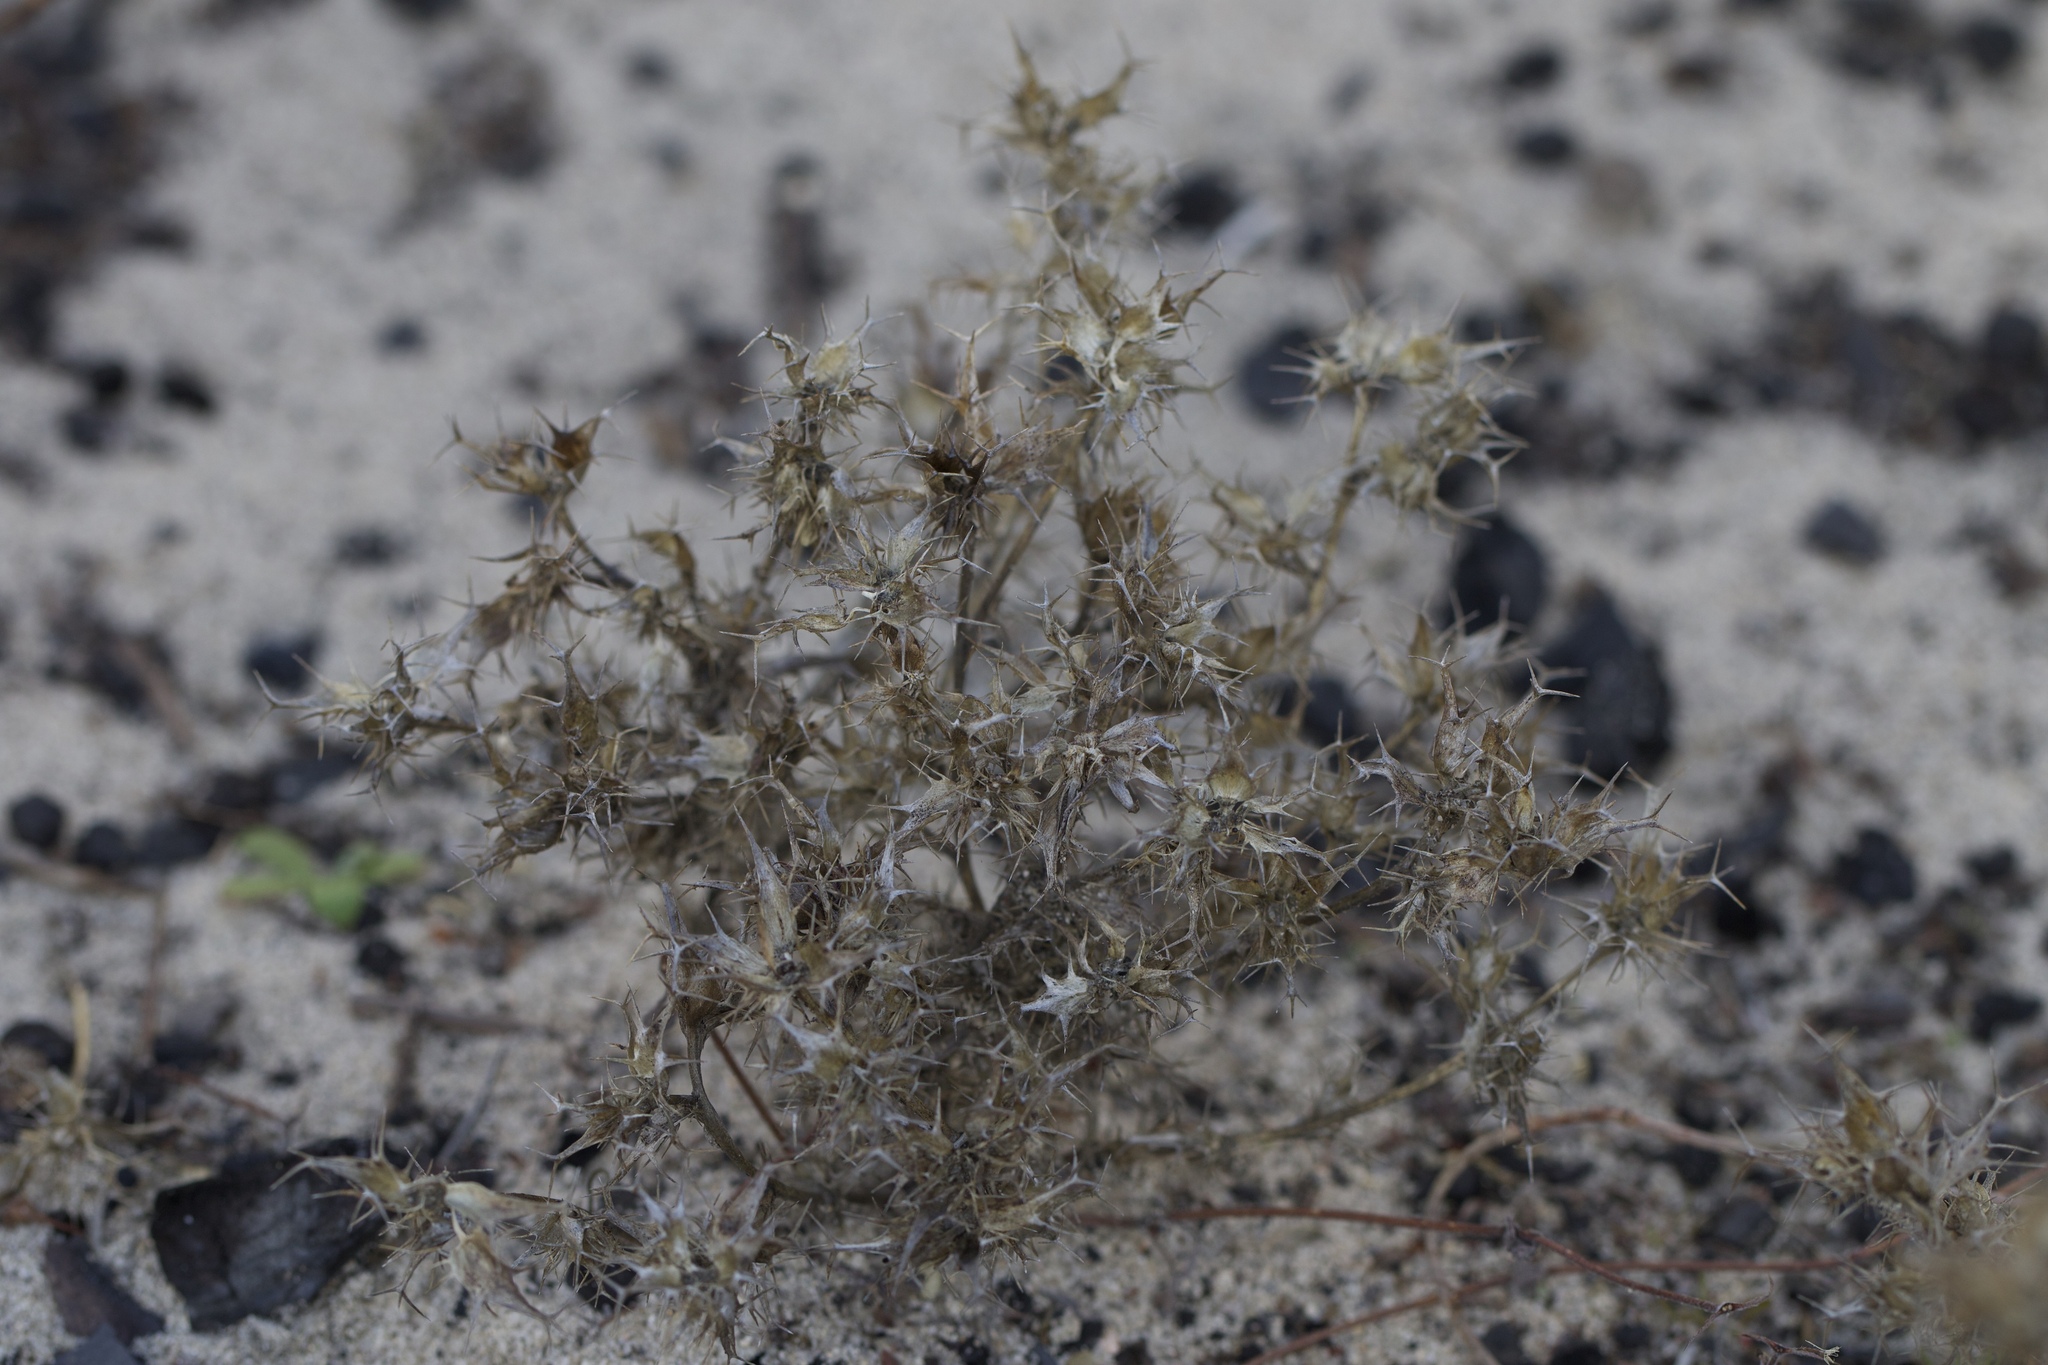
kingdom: Plantae
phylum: Tracheophyta
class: Magnoliopsida
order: Ericales
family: Polemoniaceae
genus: Navarretia
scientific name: Navarretia hamata
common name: Hooked navarretia
